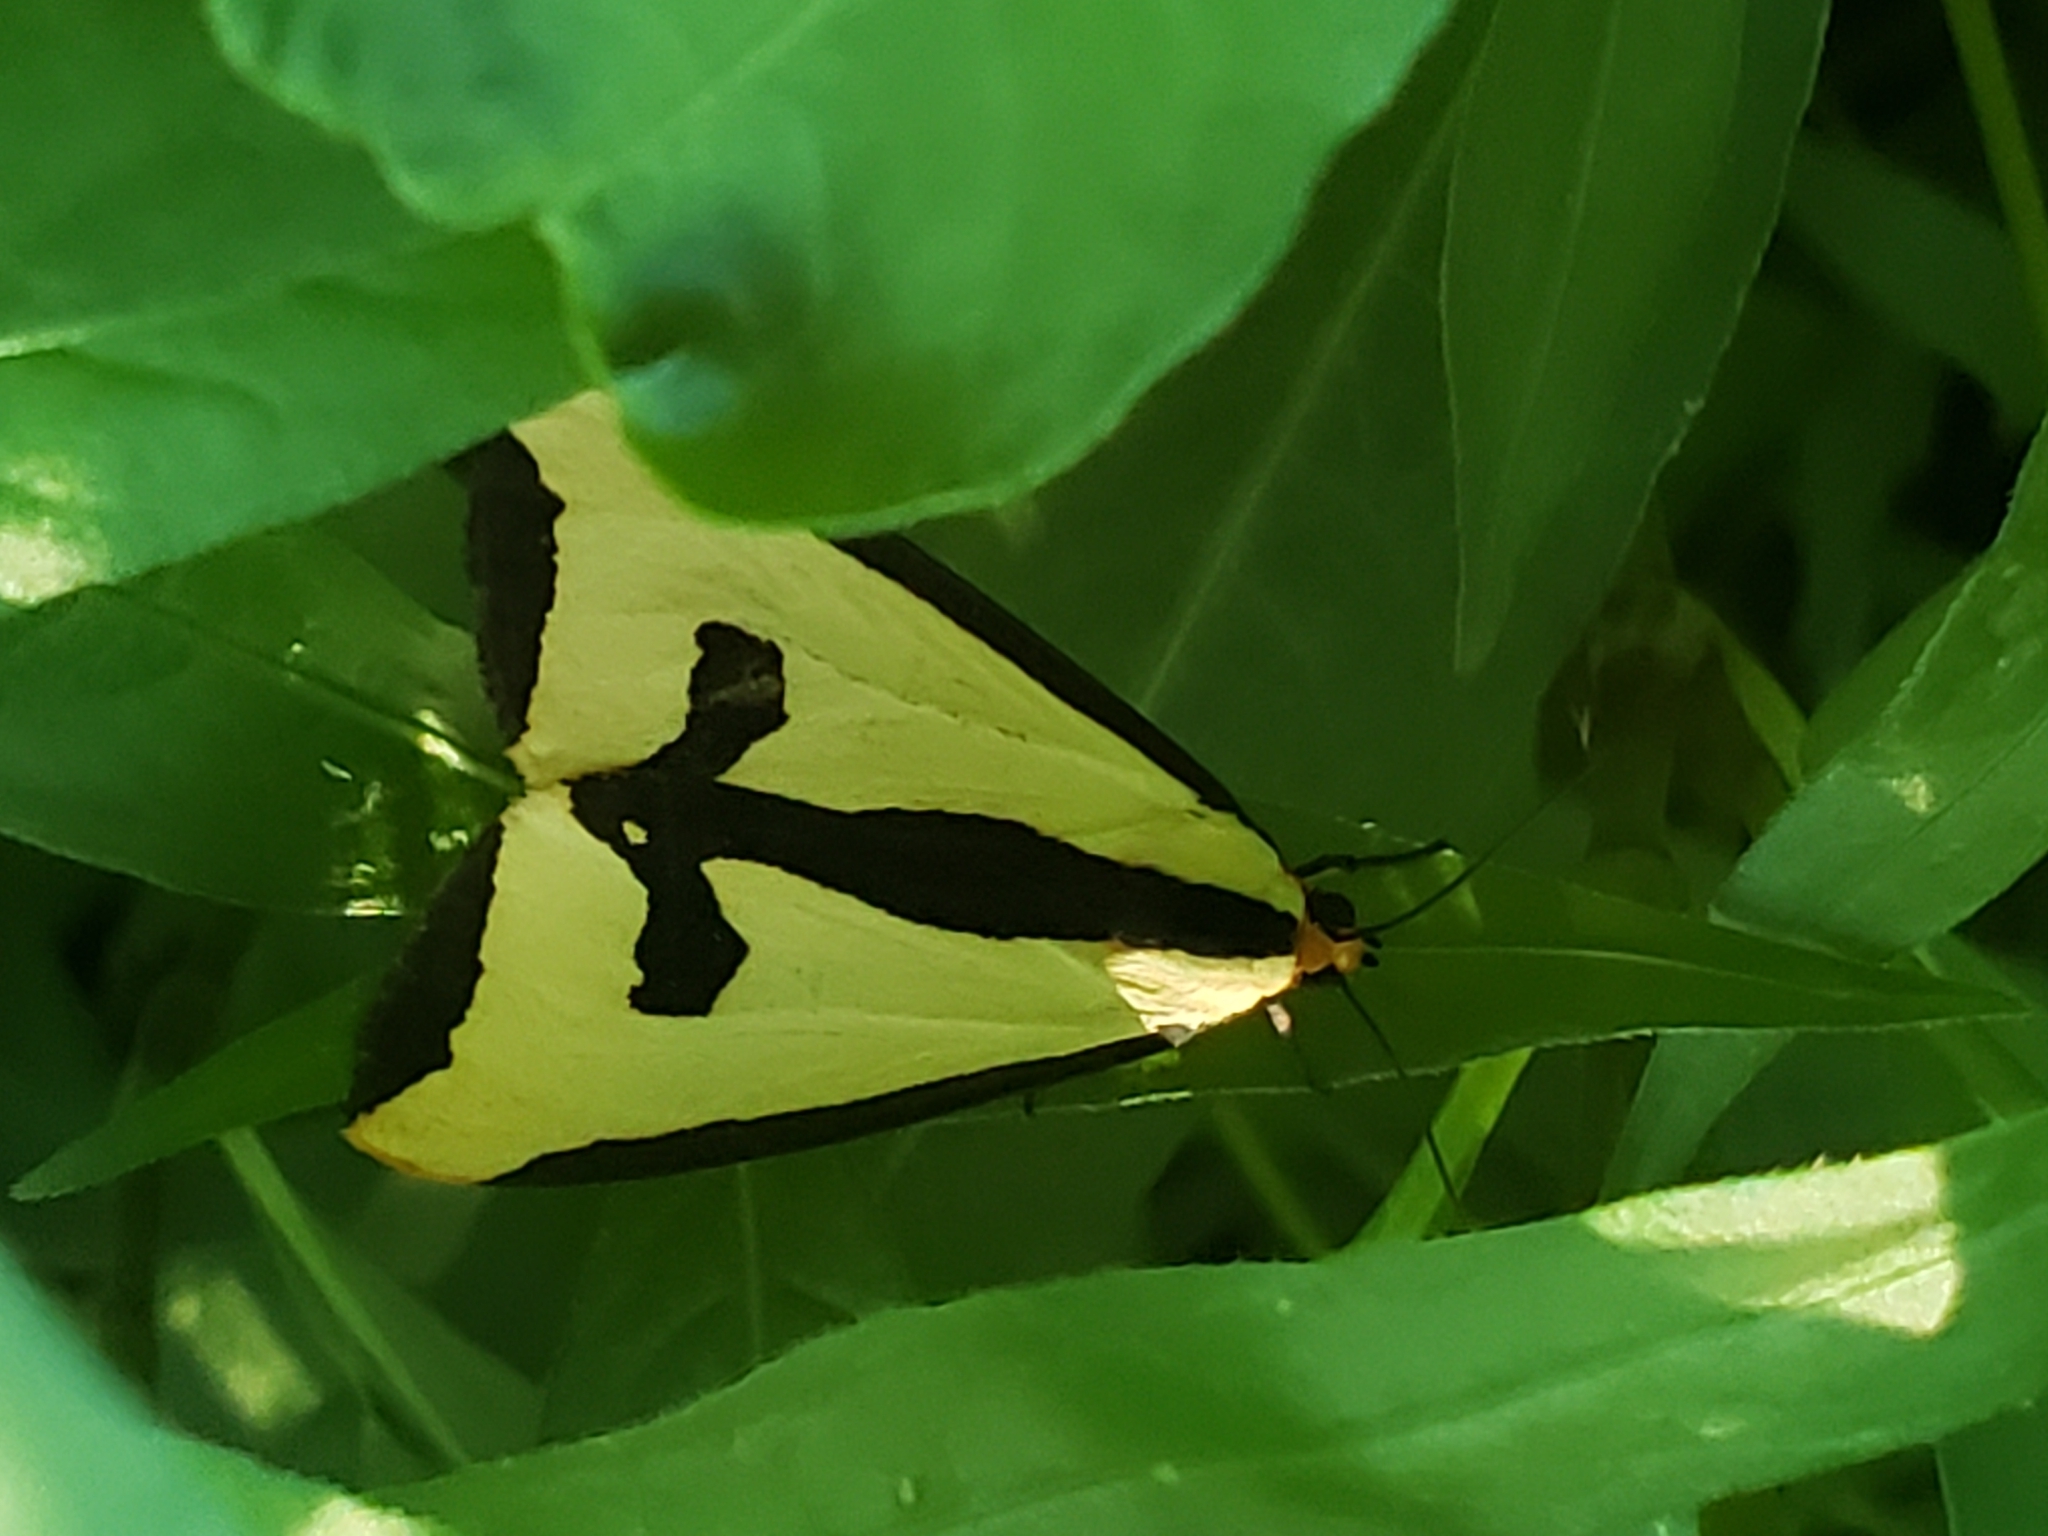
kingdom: Animalia
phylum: Arthropoda
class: Insecta
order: Lepidoptera
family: Erebidae
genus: Haploa
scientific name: Haploa clymene
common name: Clymene moth
